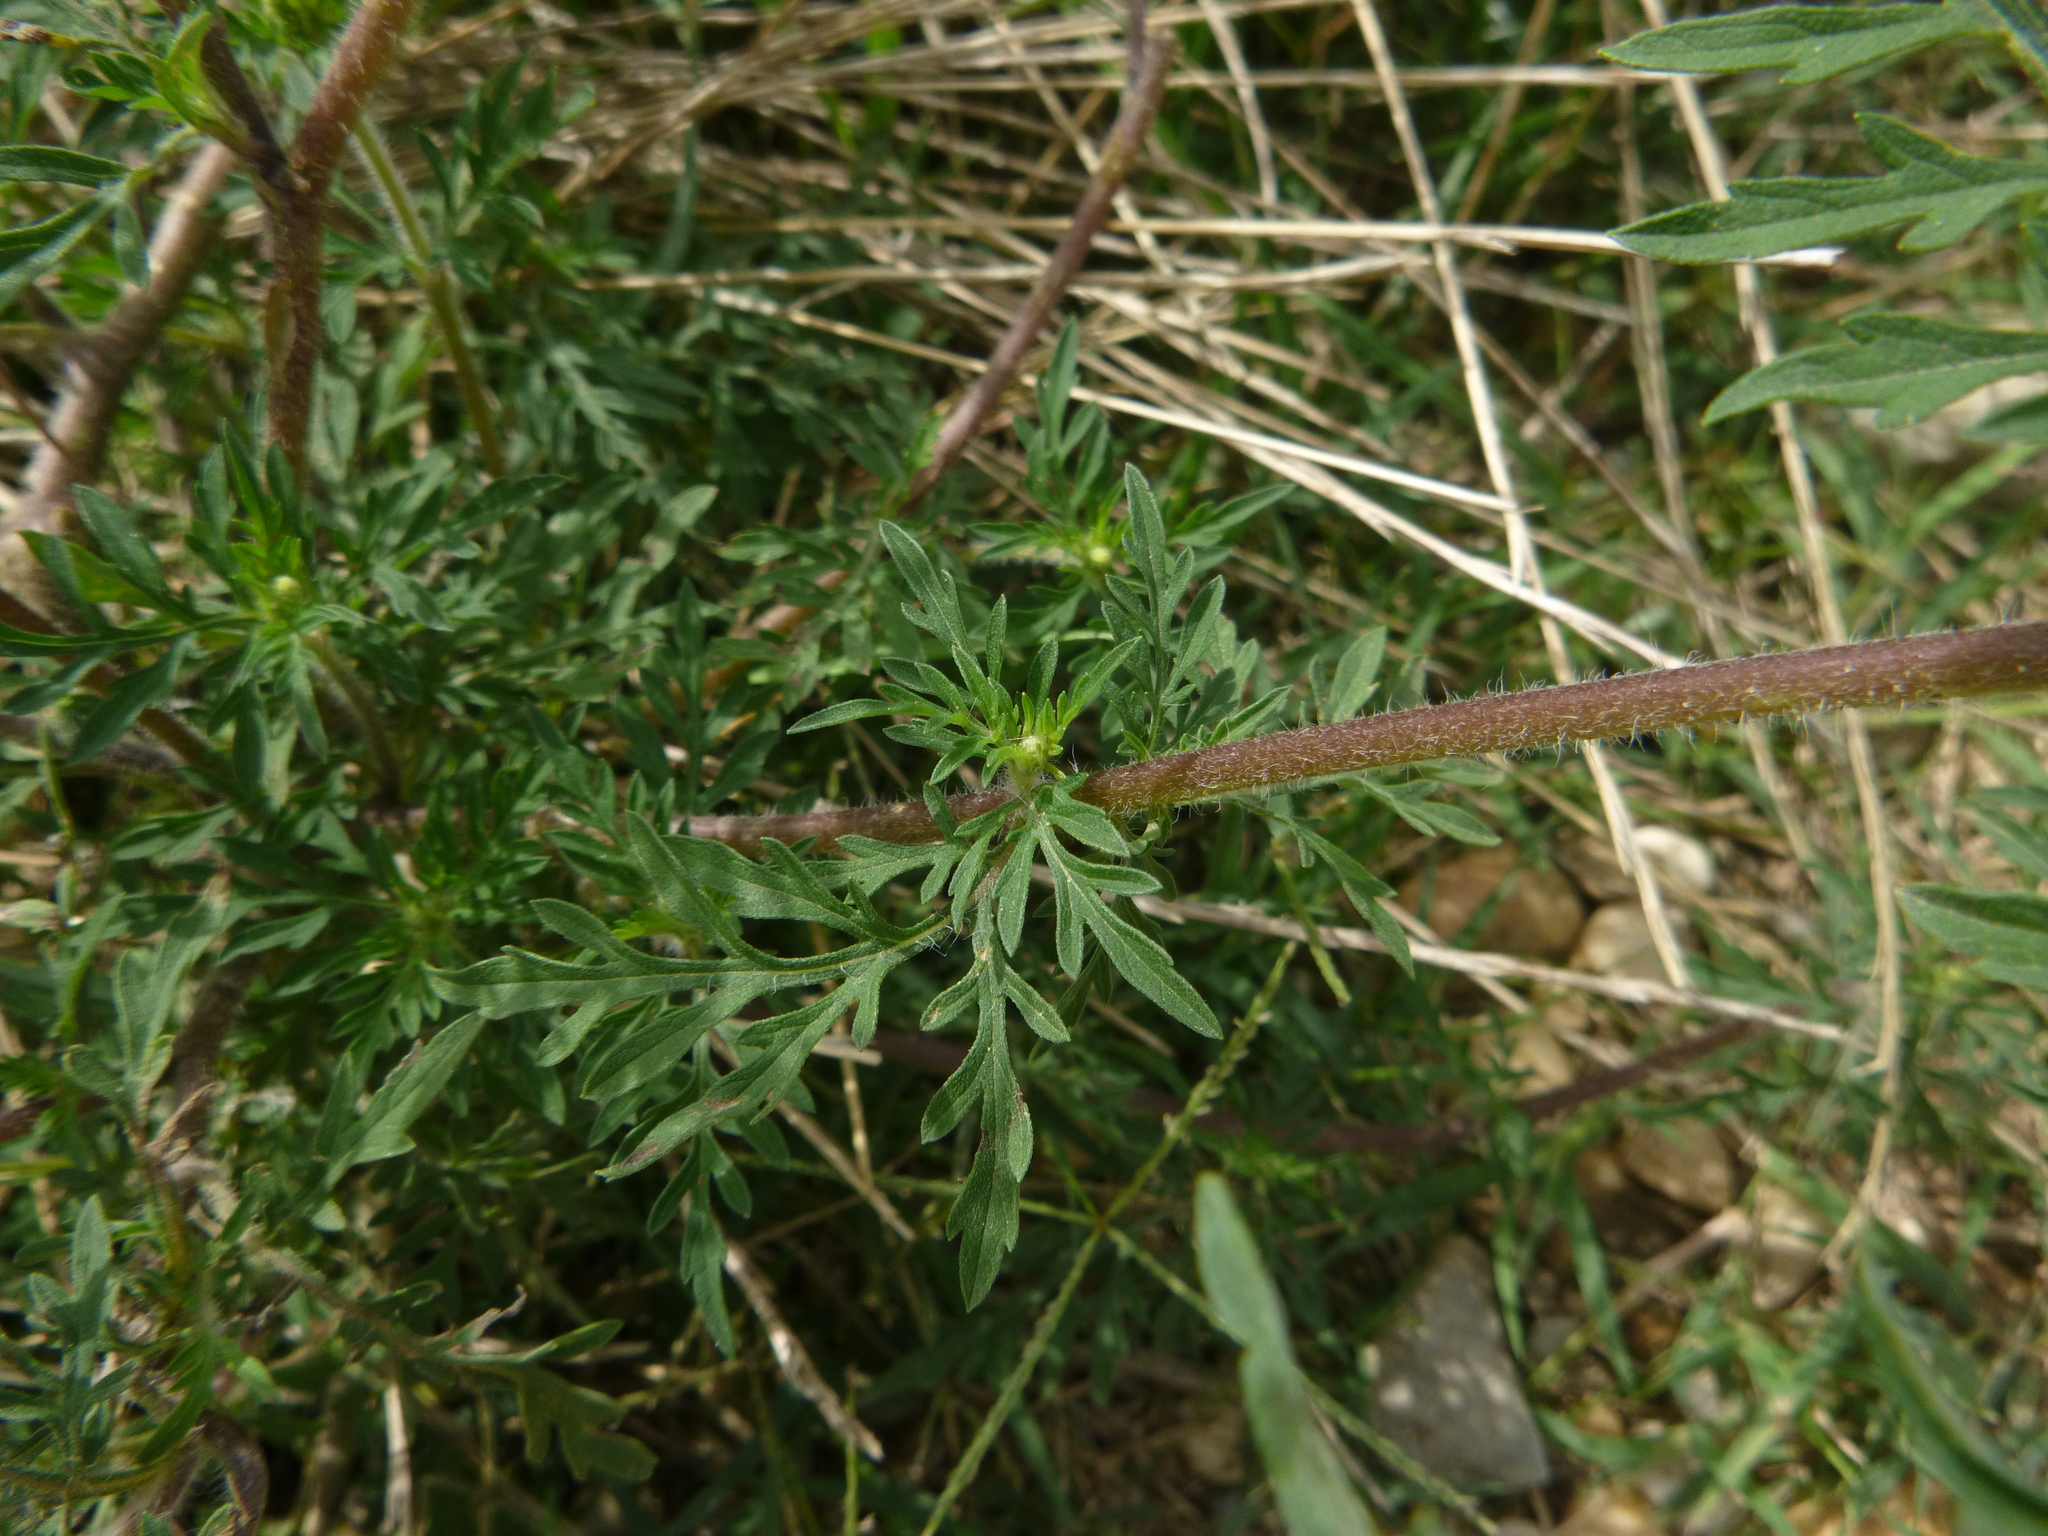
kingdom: Plantae
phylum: Tracheophyta
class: Magnoliopsida
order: Asterales
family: Asteraceae
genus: Ambrosia
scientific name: Ambrosia artemisiifolia
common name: Annual ragweed
